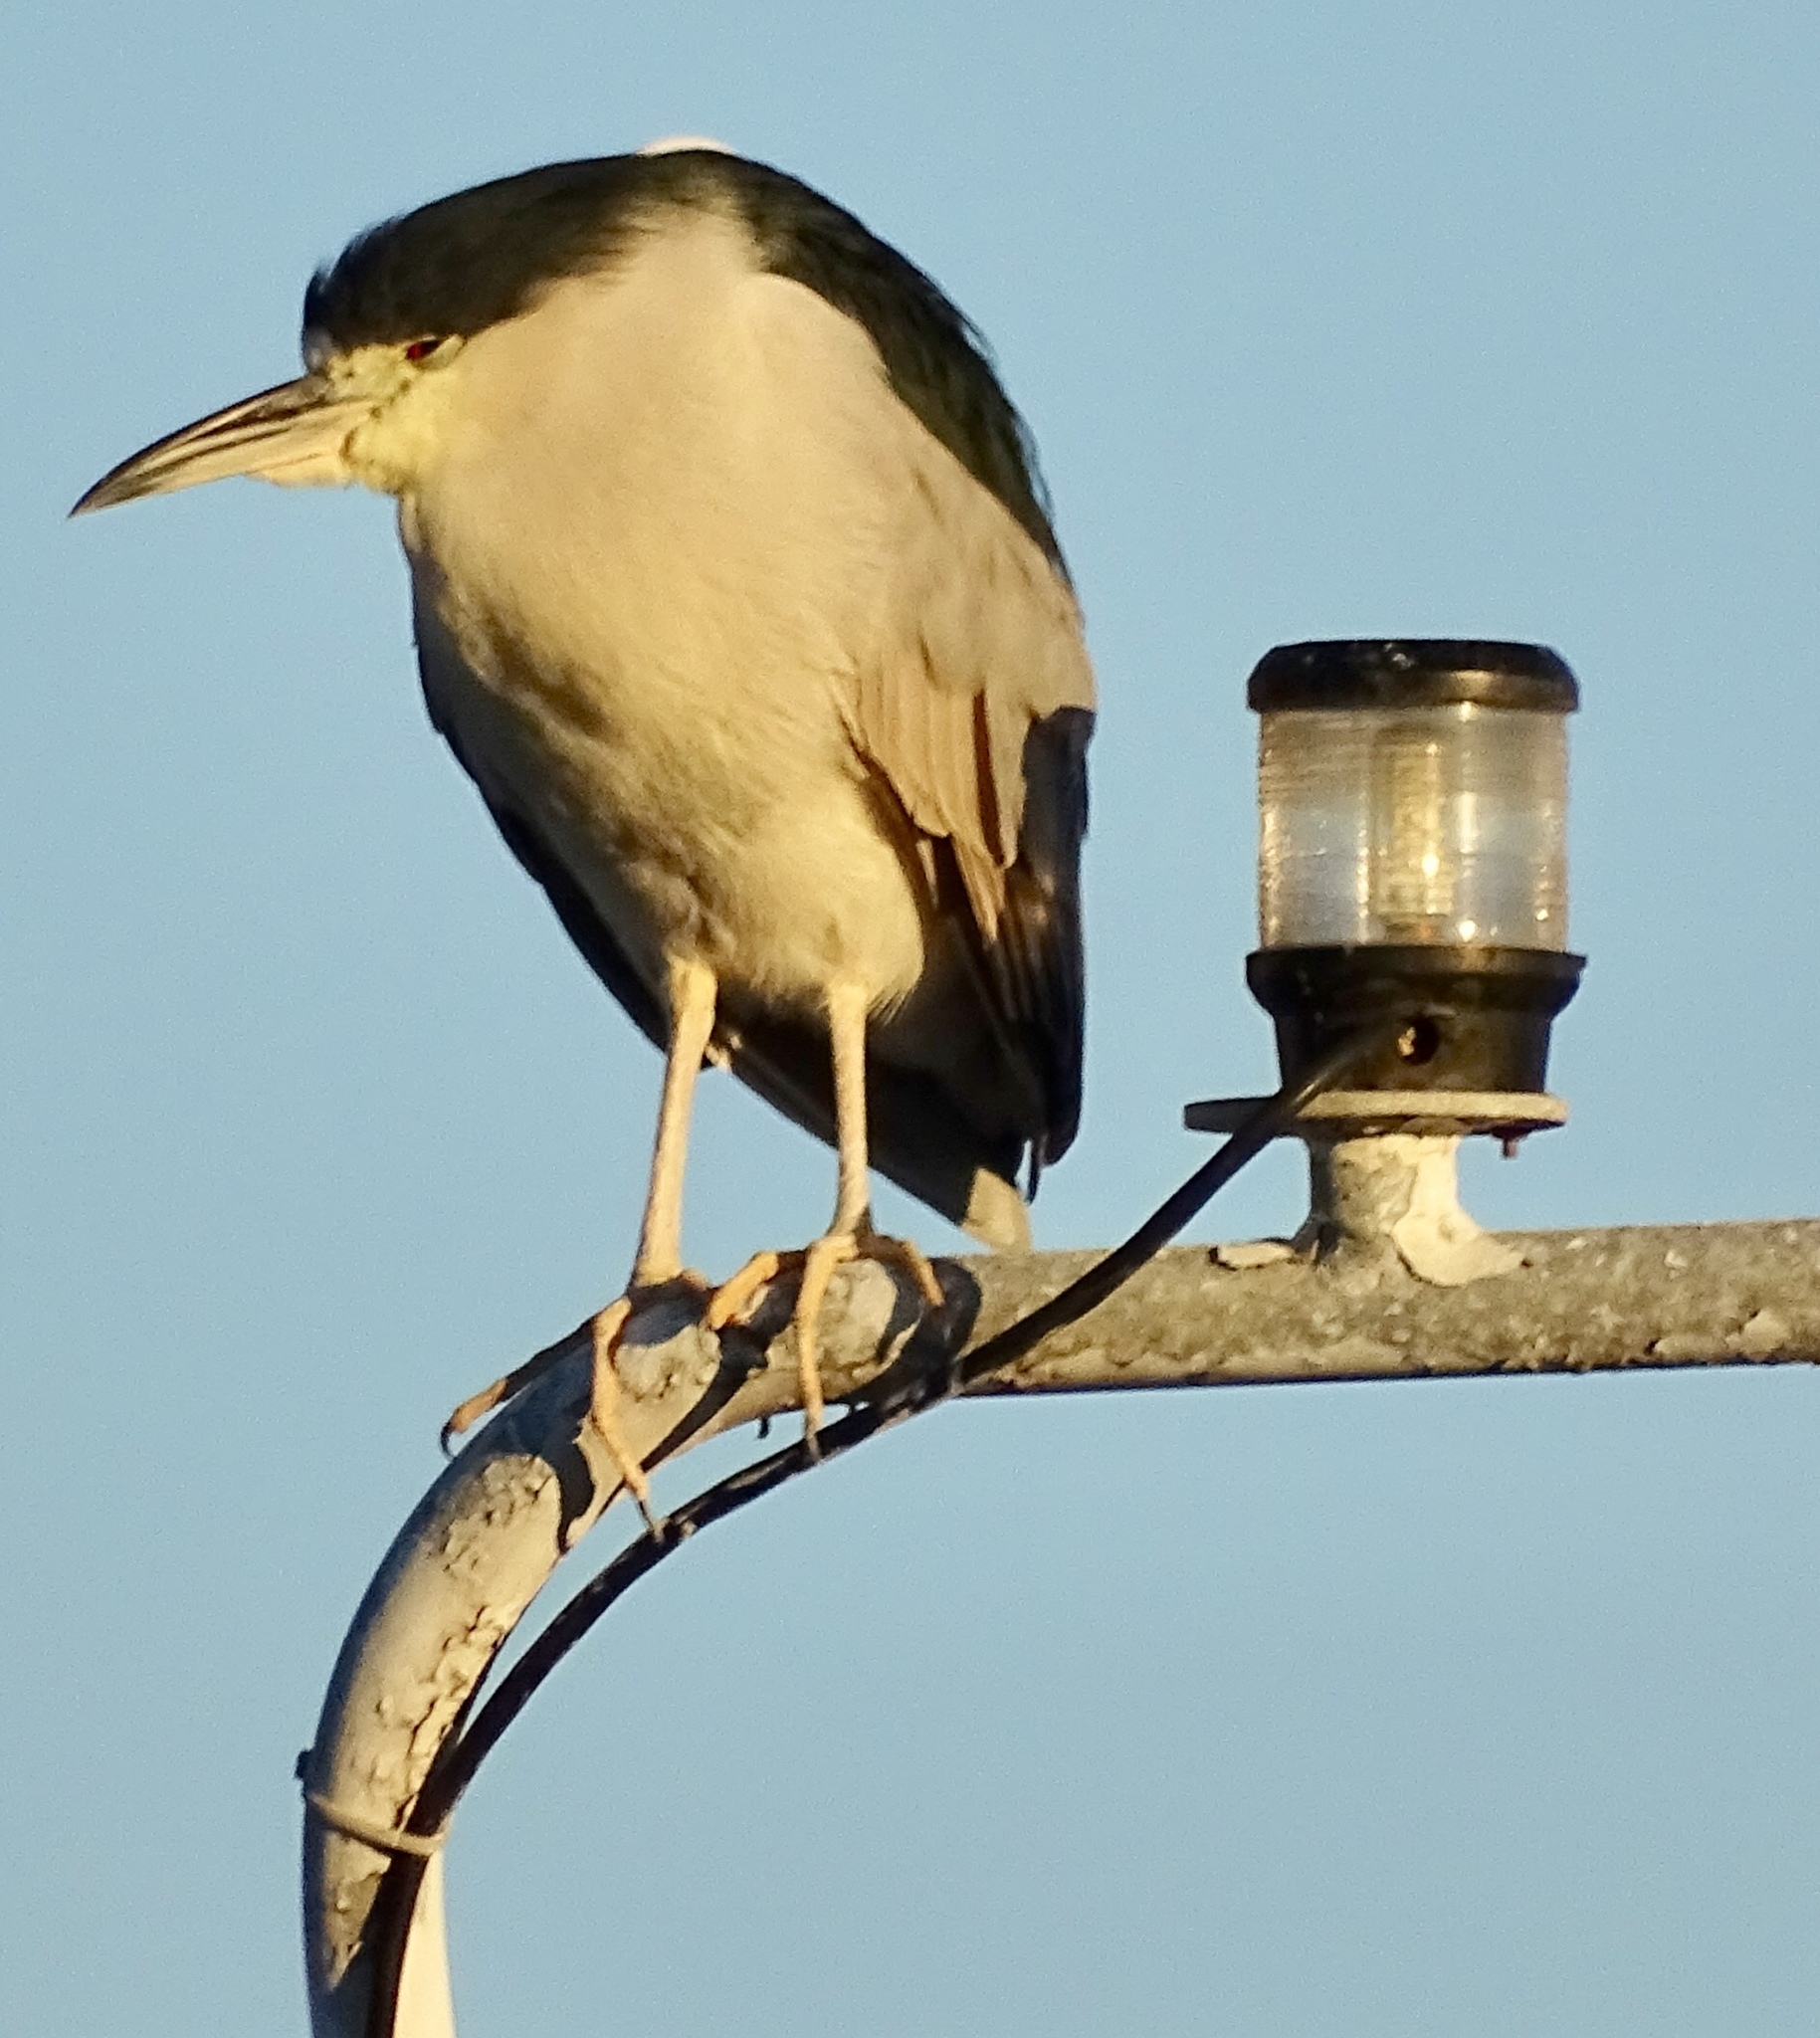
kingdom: Animalia
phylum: Chordata
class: Aves
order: Pelecaniformes
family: Ardeidae
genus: Nycticorax
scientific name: Nycticorax nycticorax
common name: Black-crowned night heron
